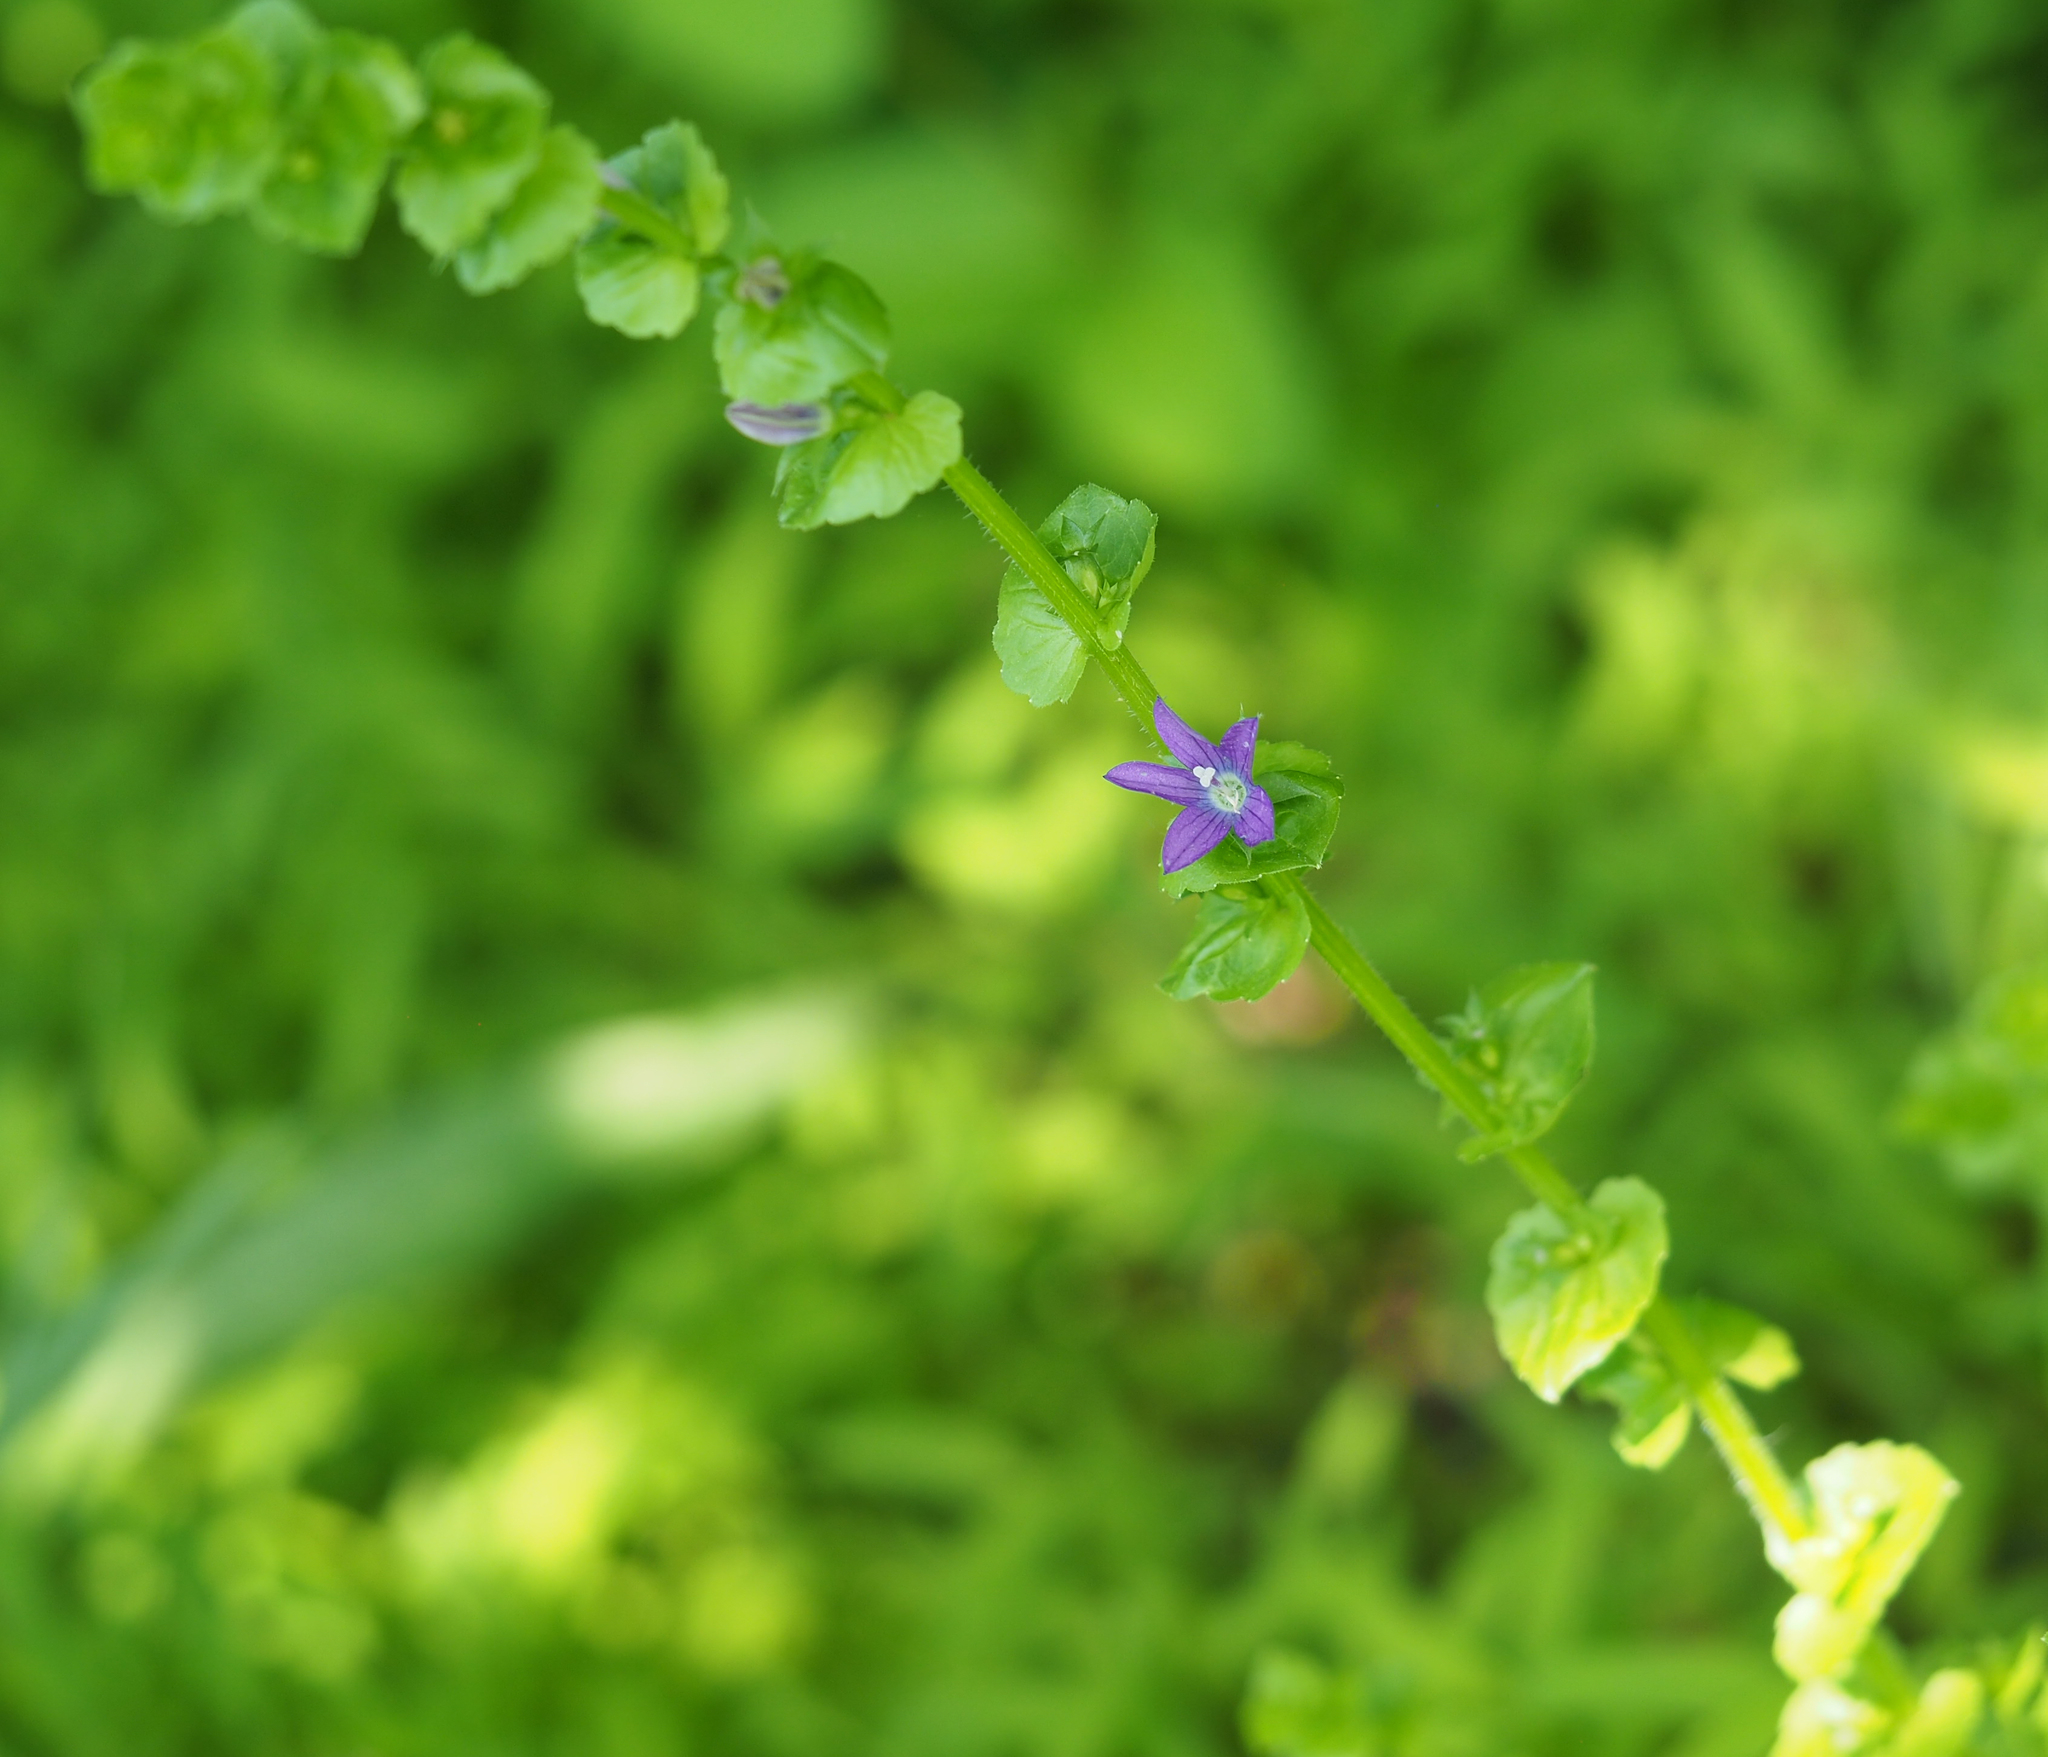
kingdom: Plantae
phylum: Tracheophyta
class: Magnoliopsida
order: Asterales
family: Campanulaceae
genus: Triodanis
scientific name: Triodanis perfoliata
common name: Clasping venus' looking-glass
